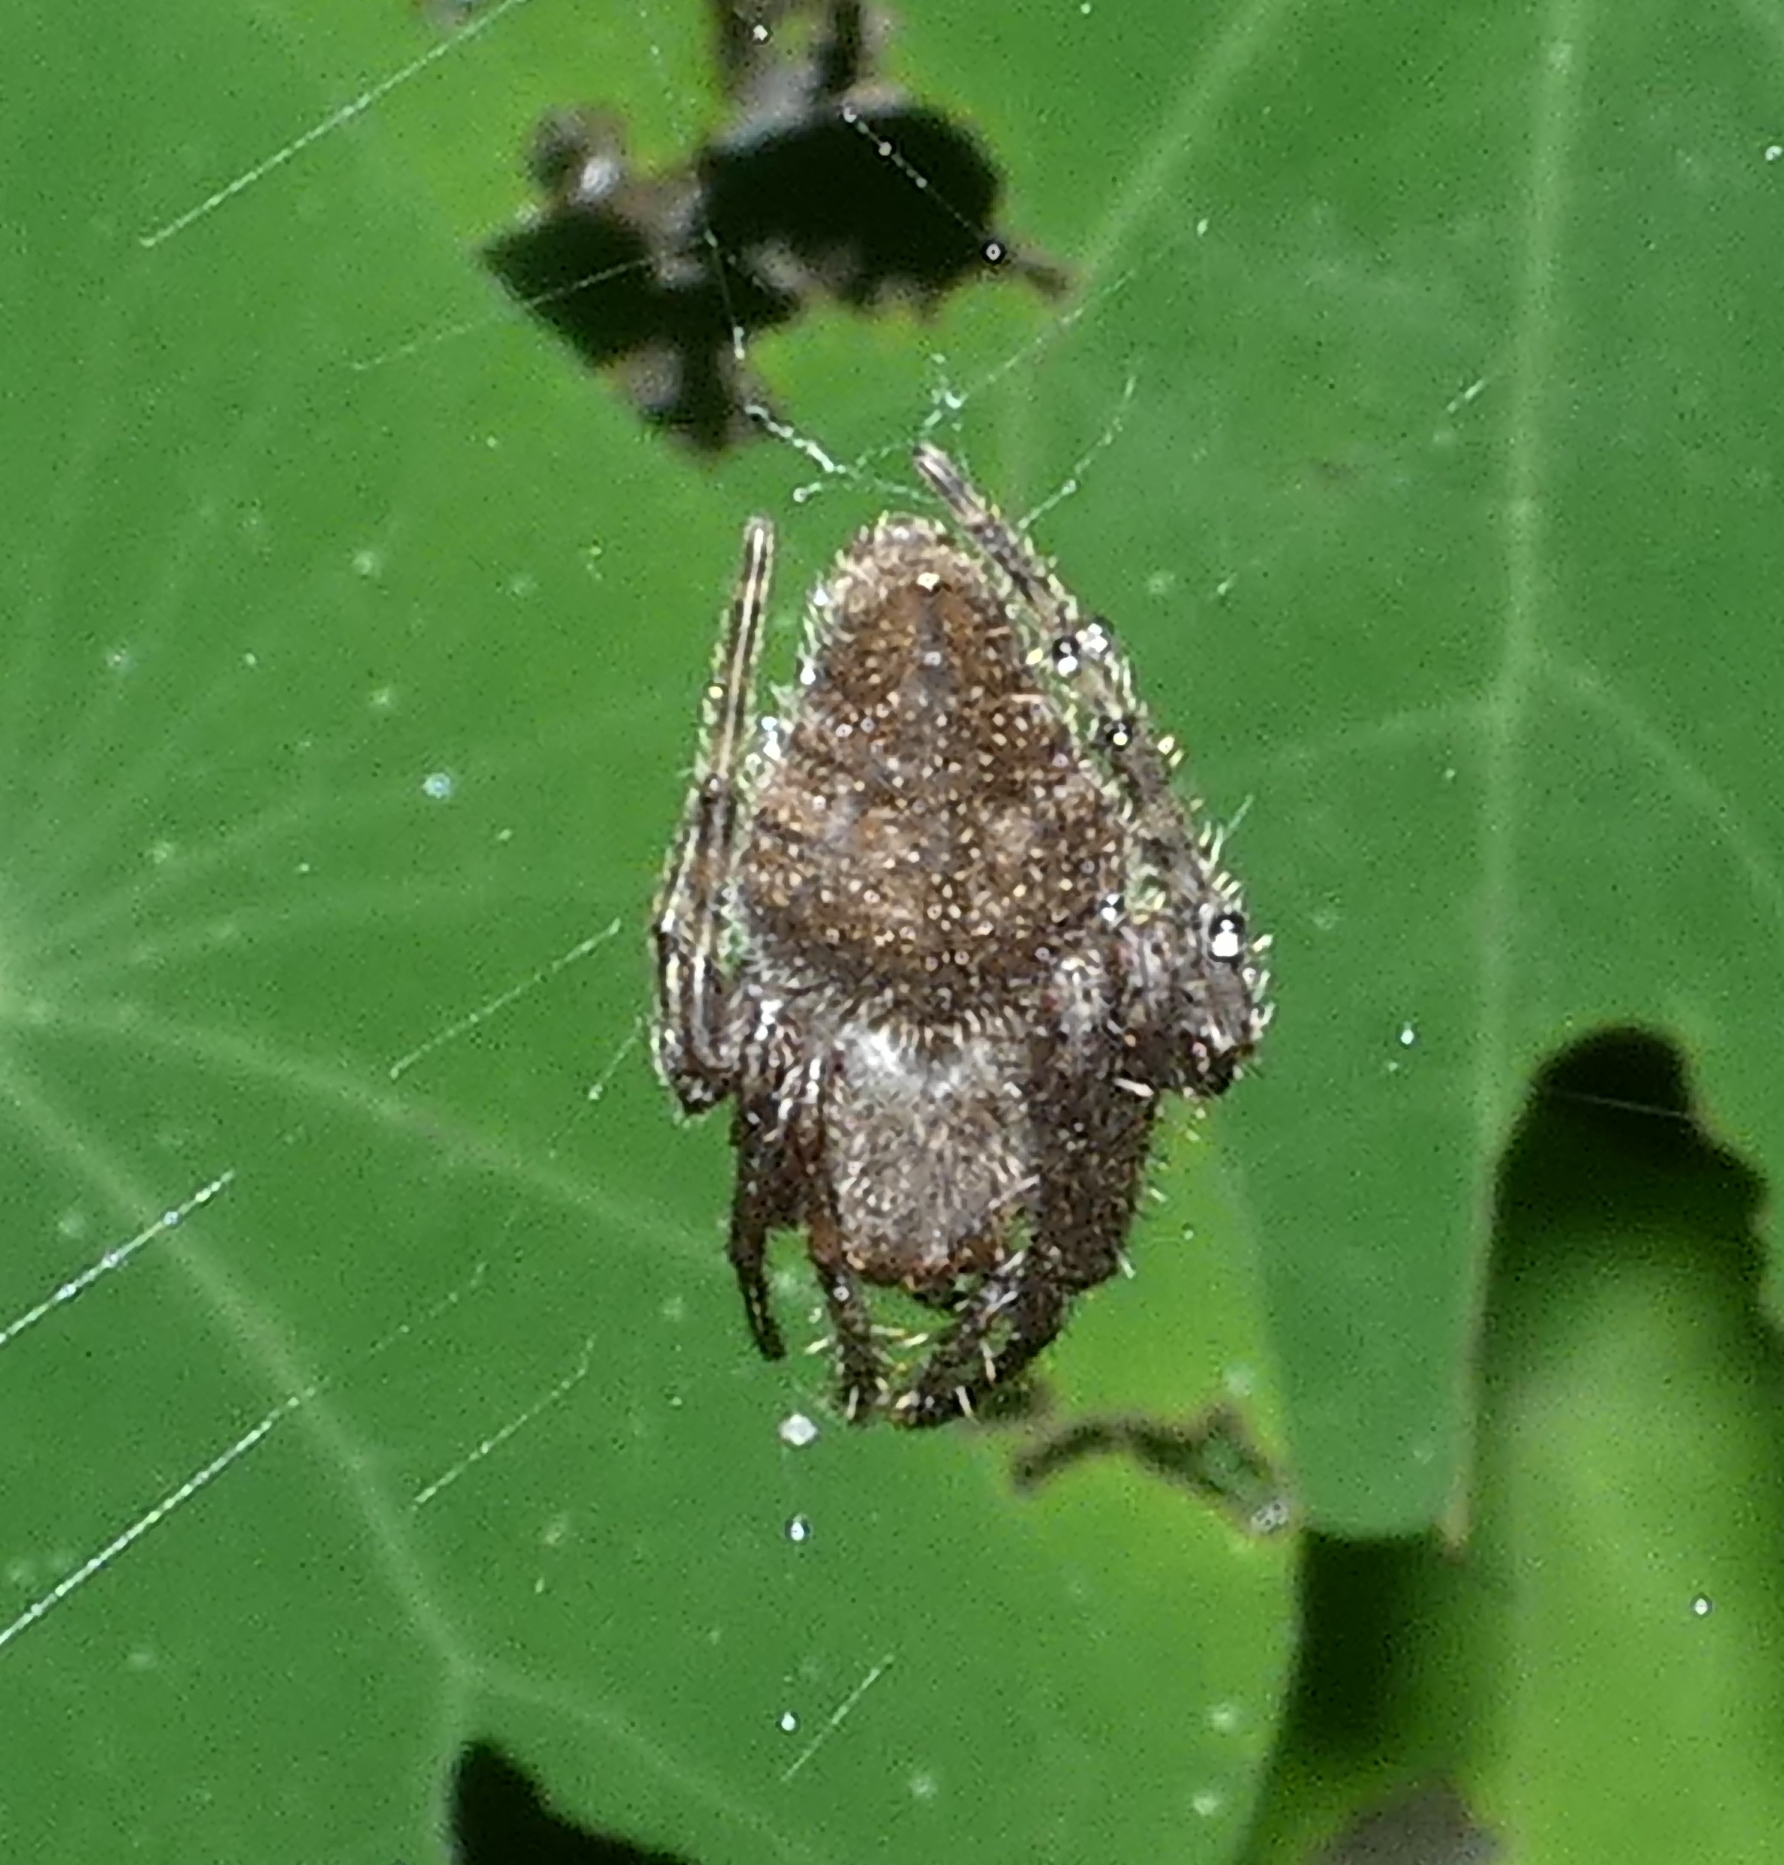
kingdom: Animalia
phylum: Arthropoda
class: Arachnida
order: Araneae
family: Araneidae
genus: Eriophora
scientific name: Eriophora edax
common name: Orb weavers
